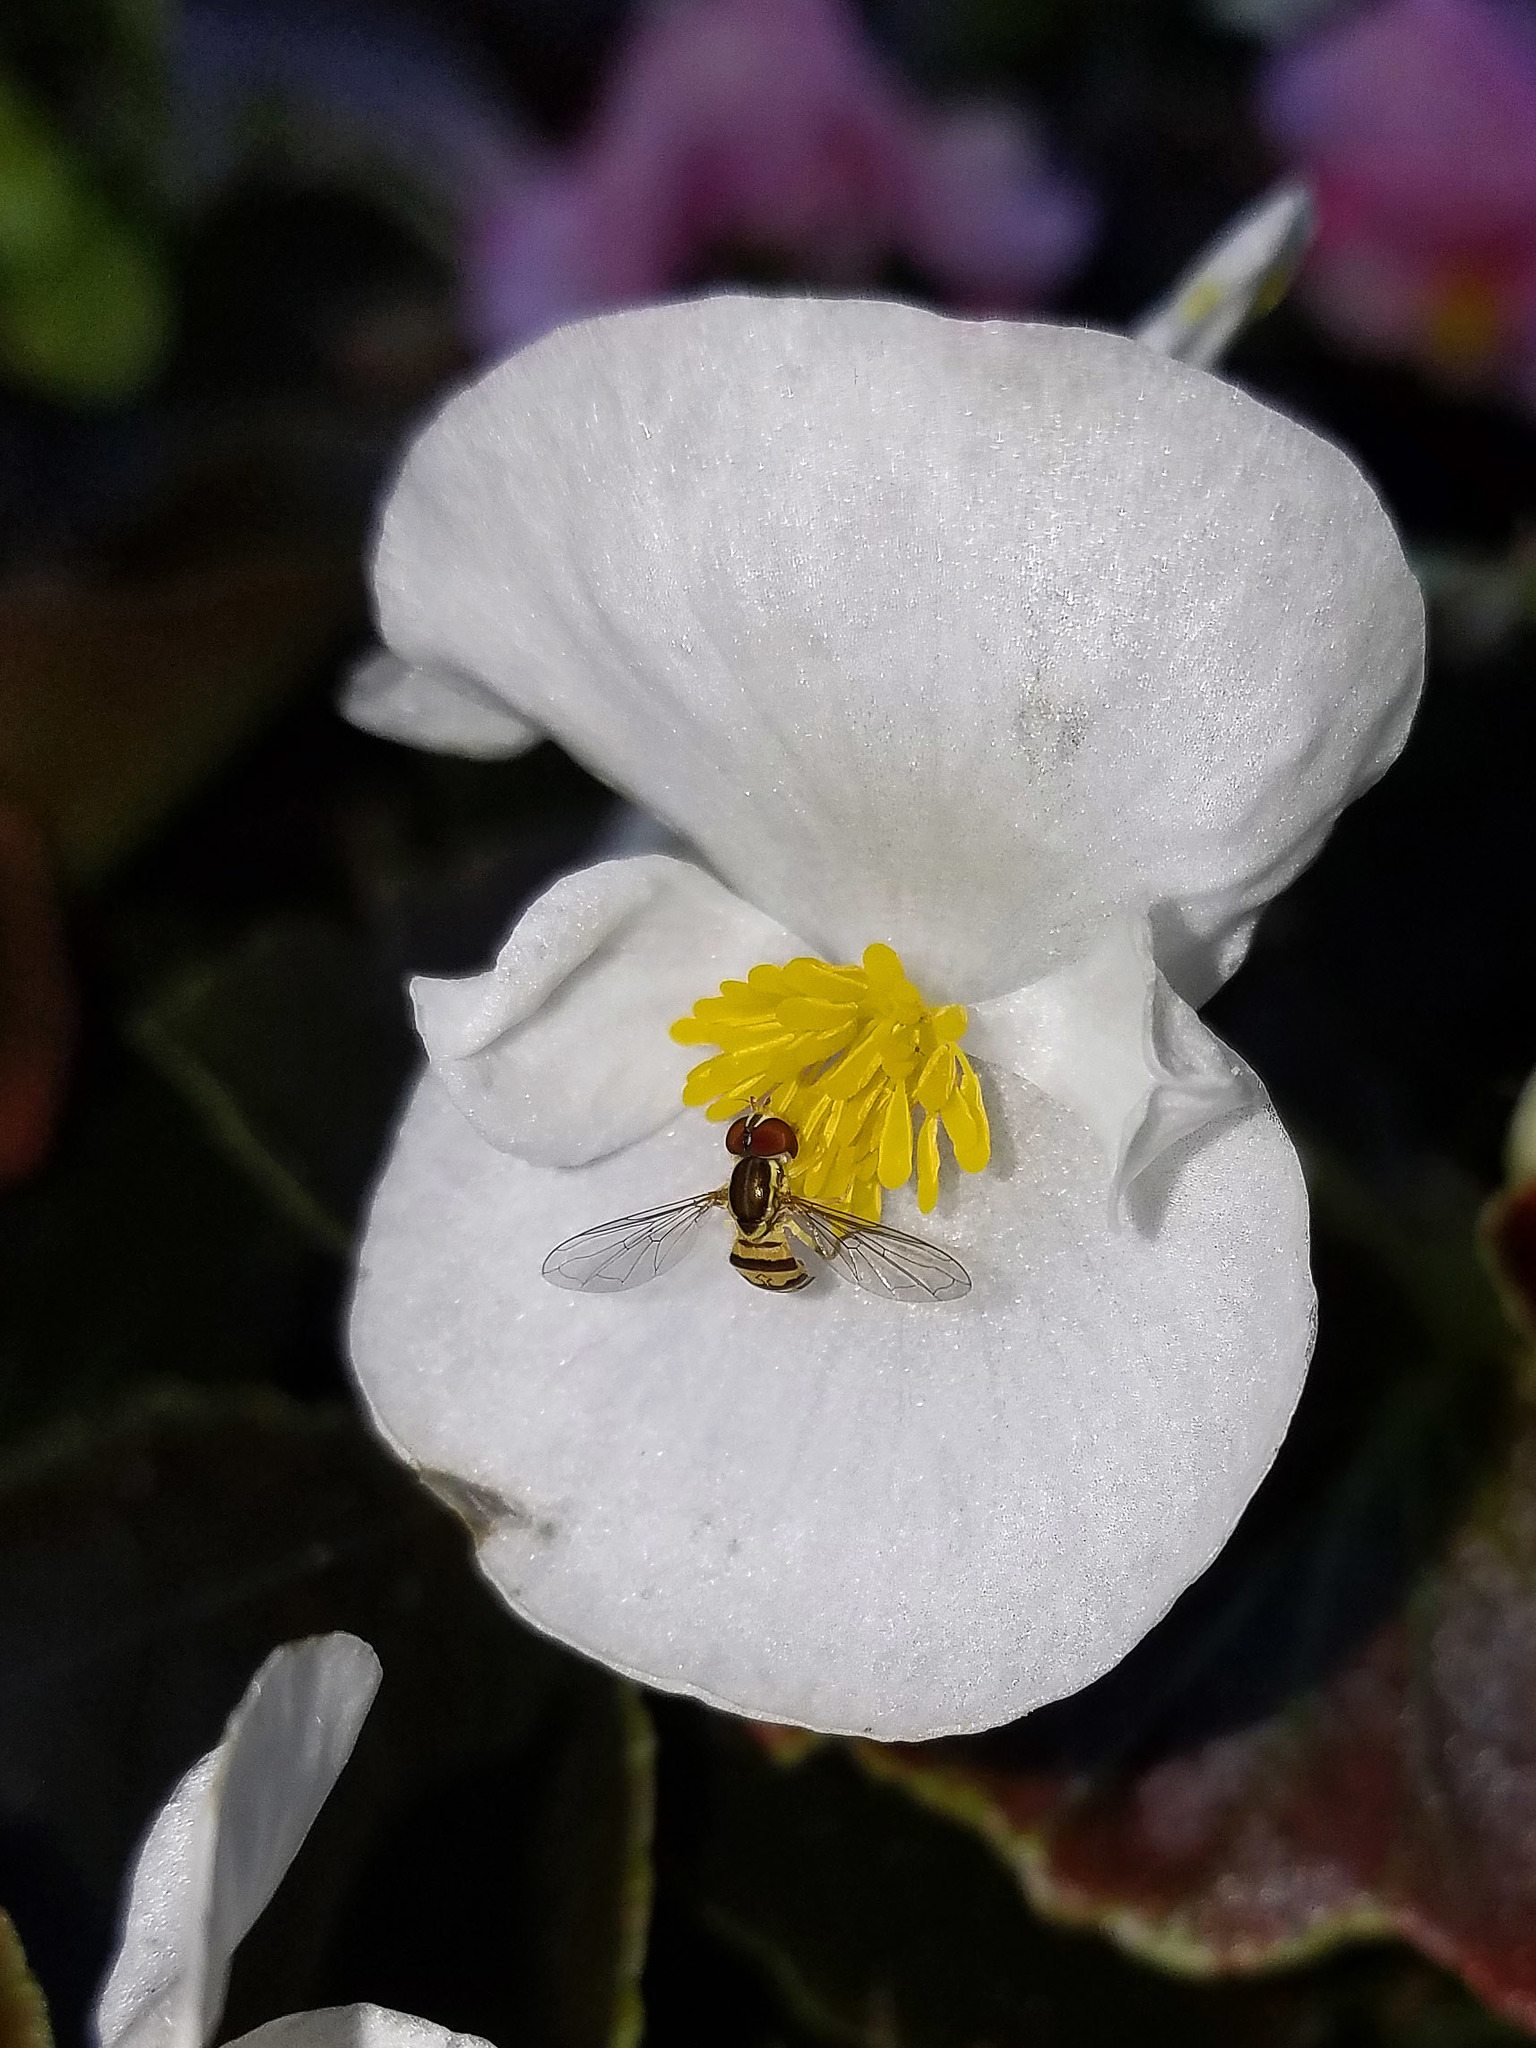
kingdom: Animalia
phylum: Arthropoda
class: Insecta
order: Diptera
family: Syrphidae
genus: Toxomerus
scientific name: Toxomerus geminatus
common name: Eastern calligrapher
